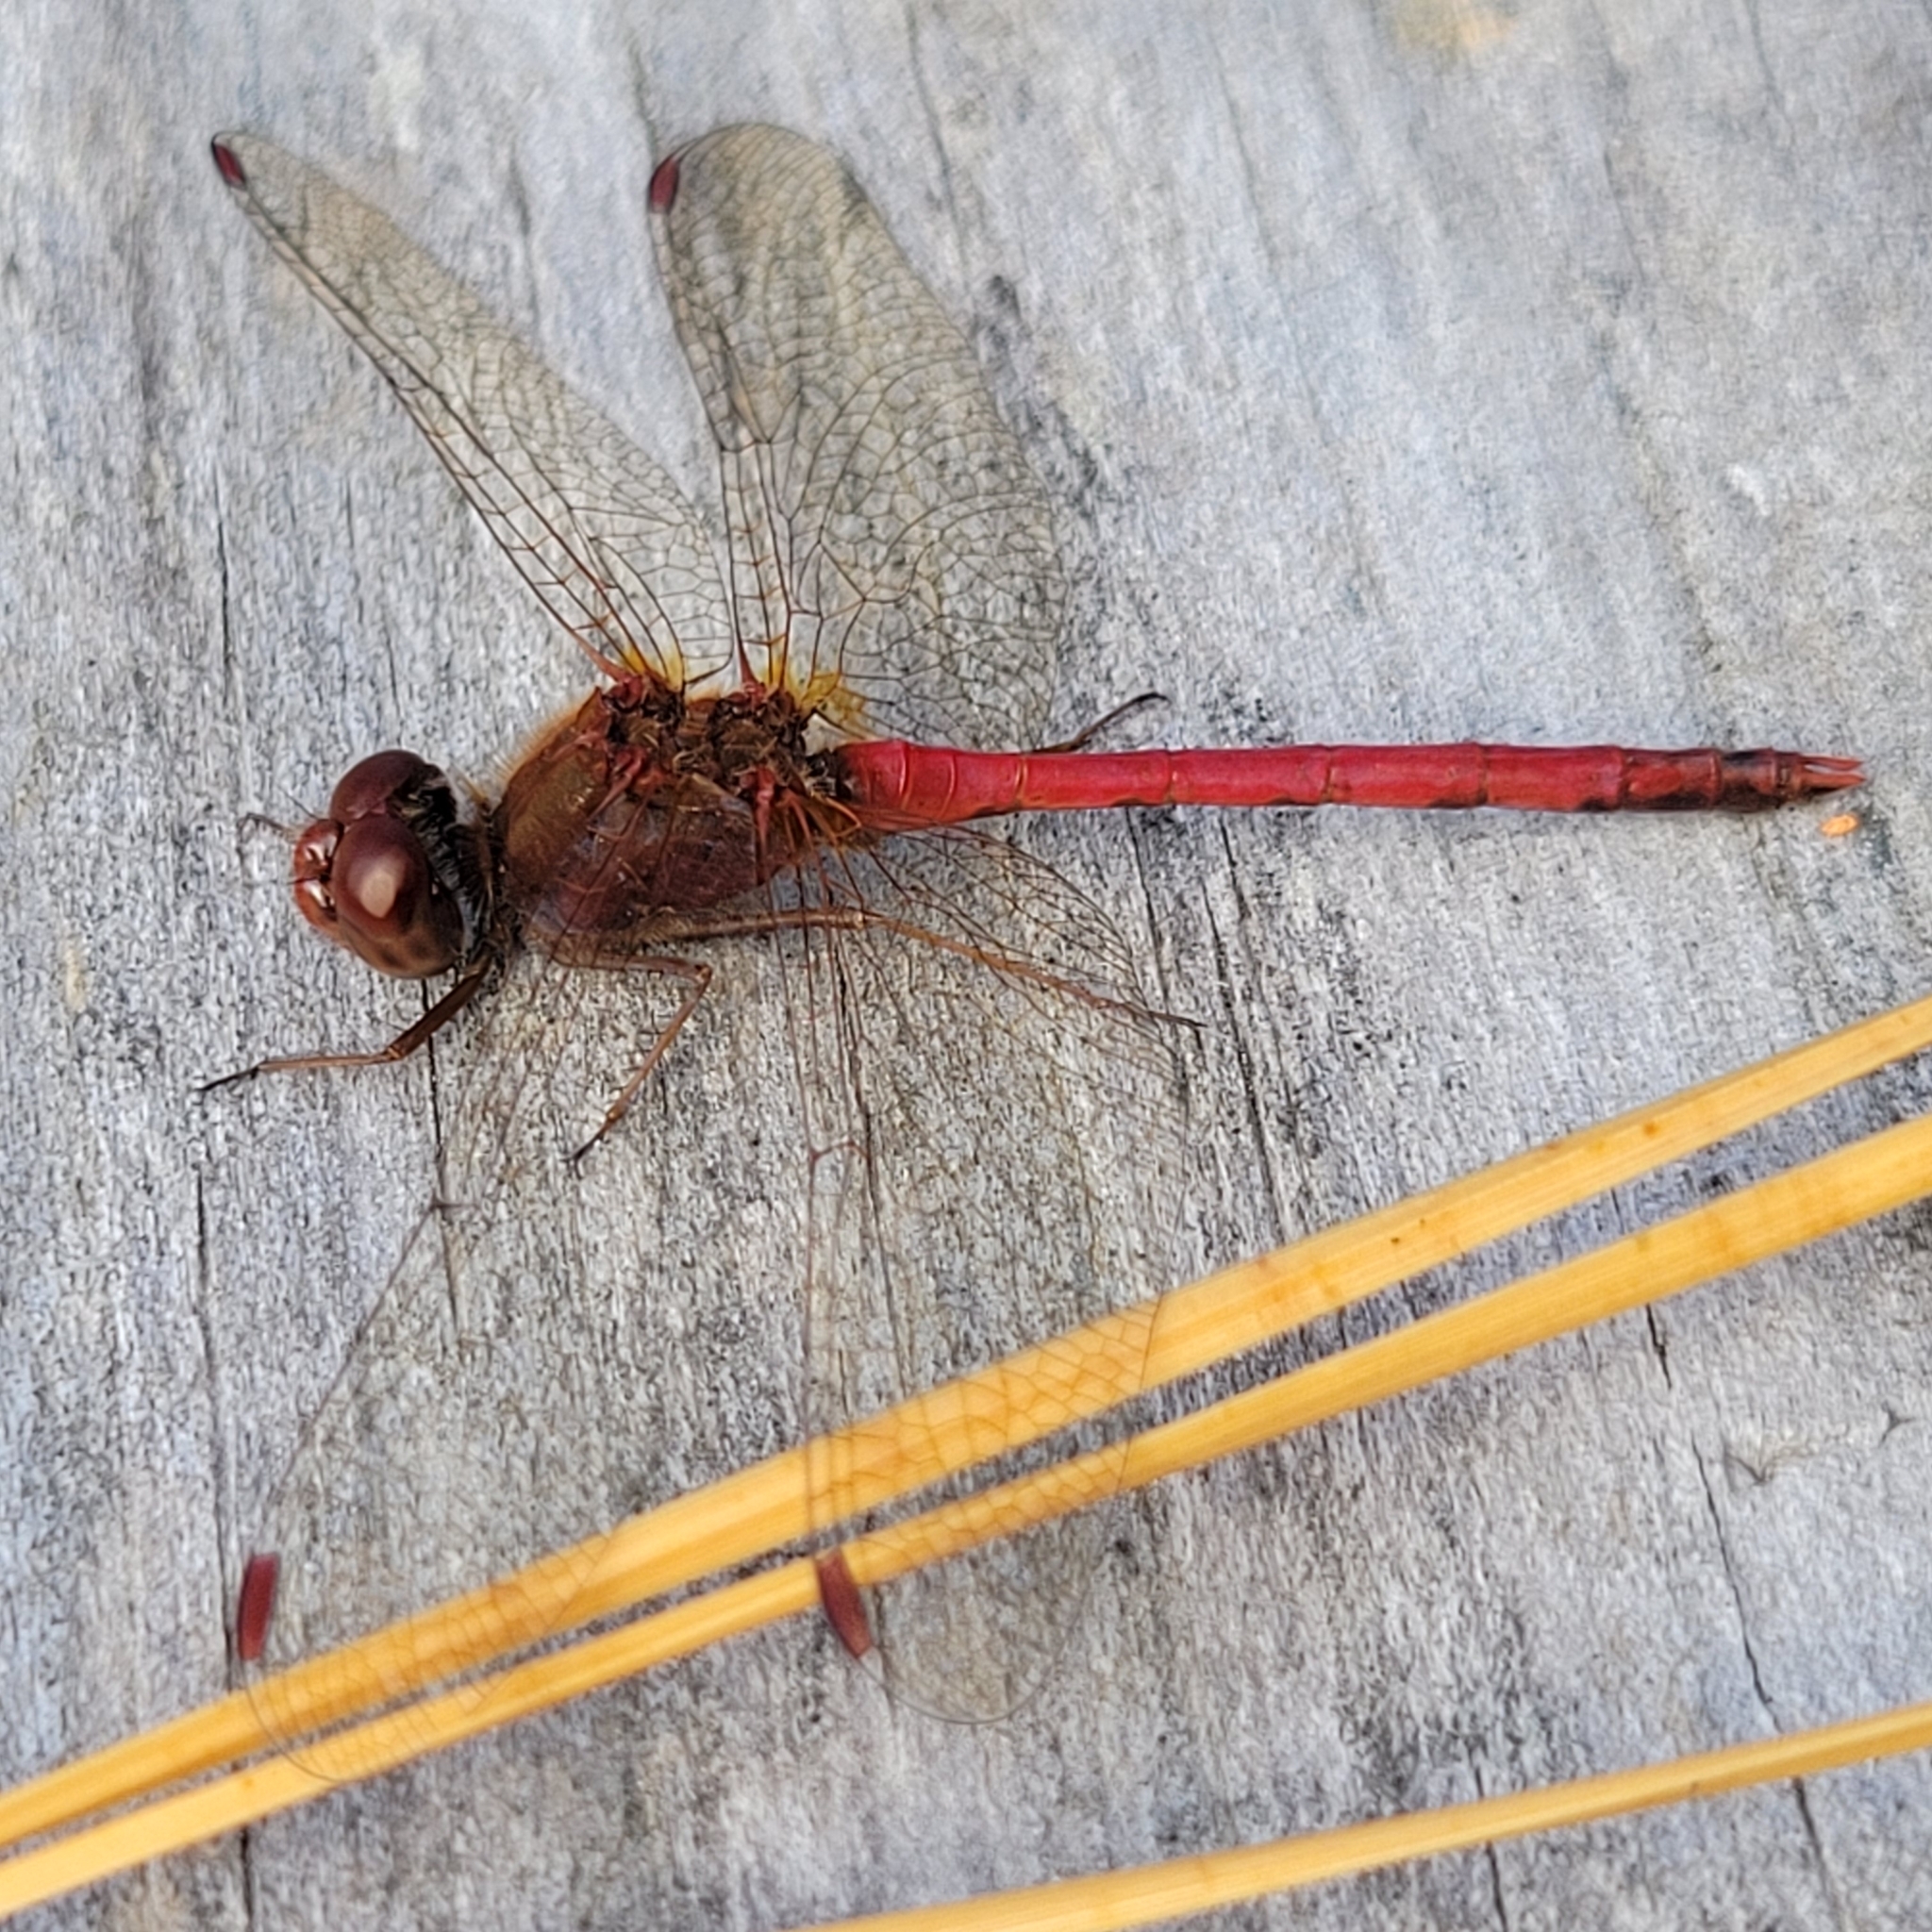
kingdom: Animalia
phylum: Arthropoda
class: Insecta
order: Odonata
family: Libellulidae
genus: Sympetrum
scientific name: Sympetrum vicinum
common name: Autumn meadowhawk
